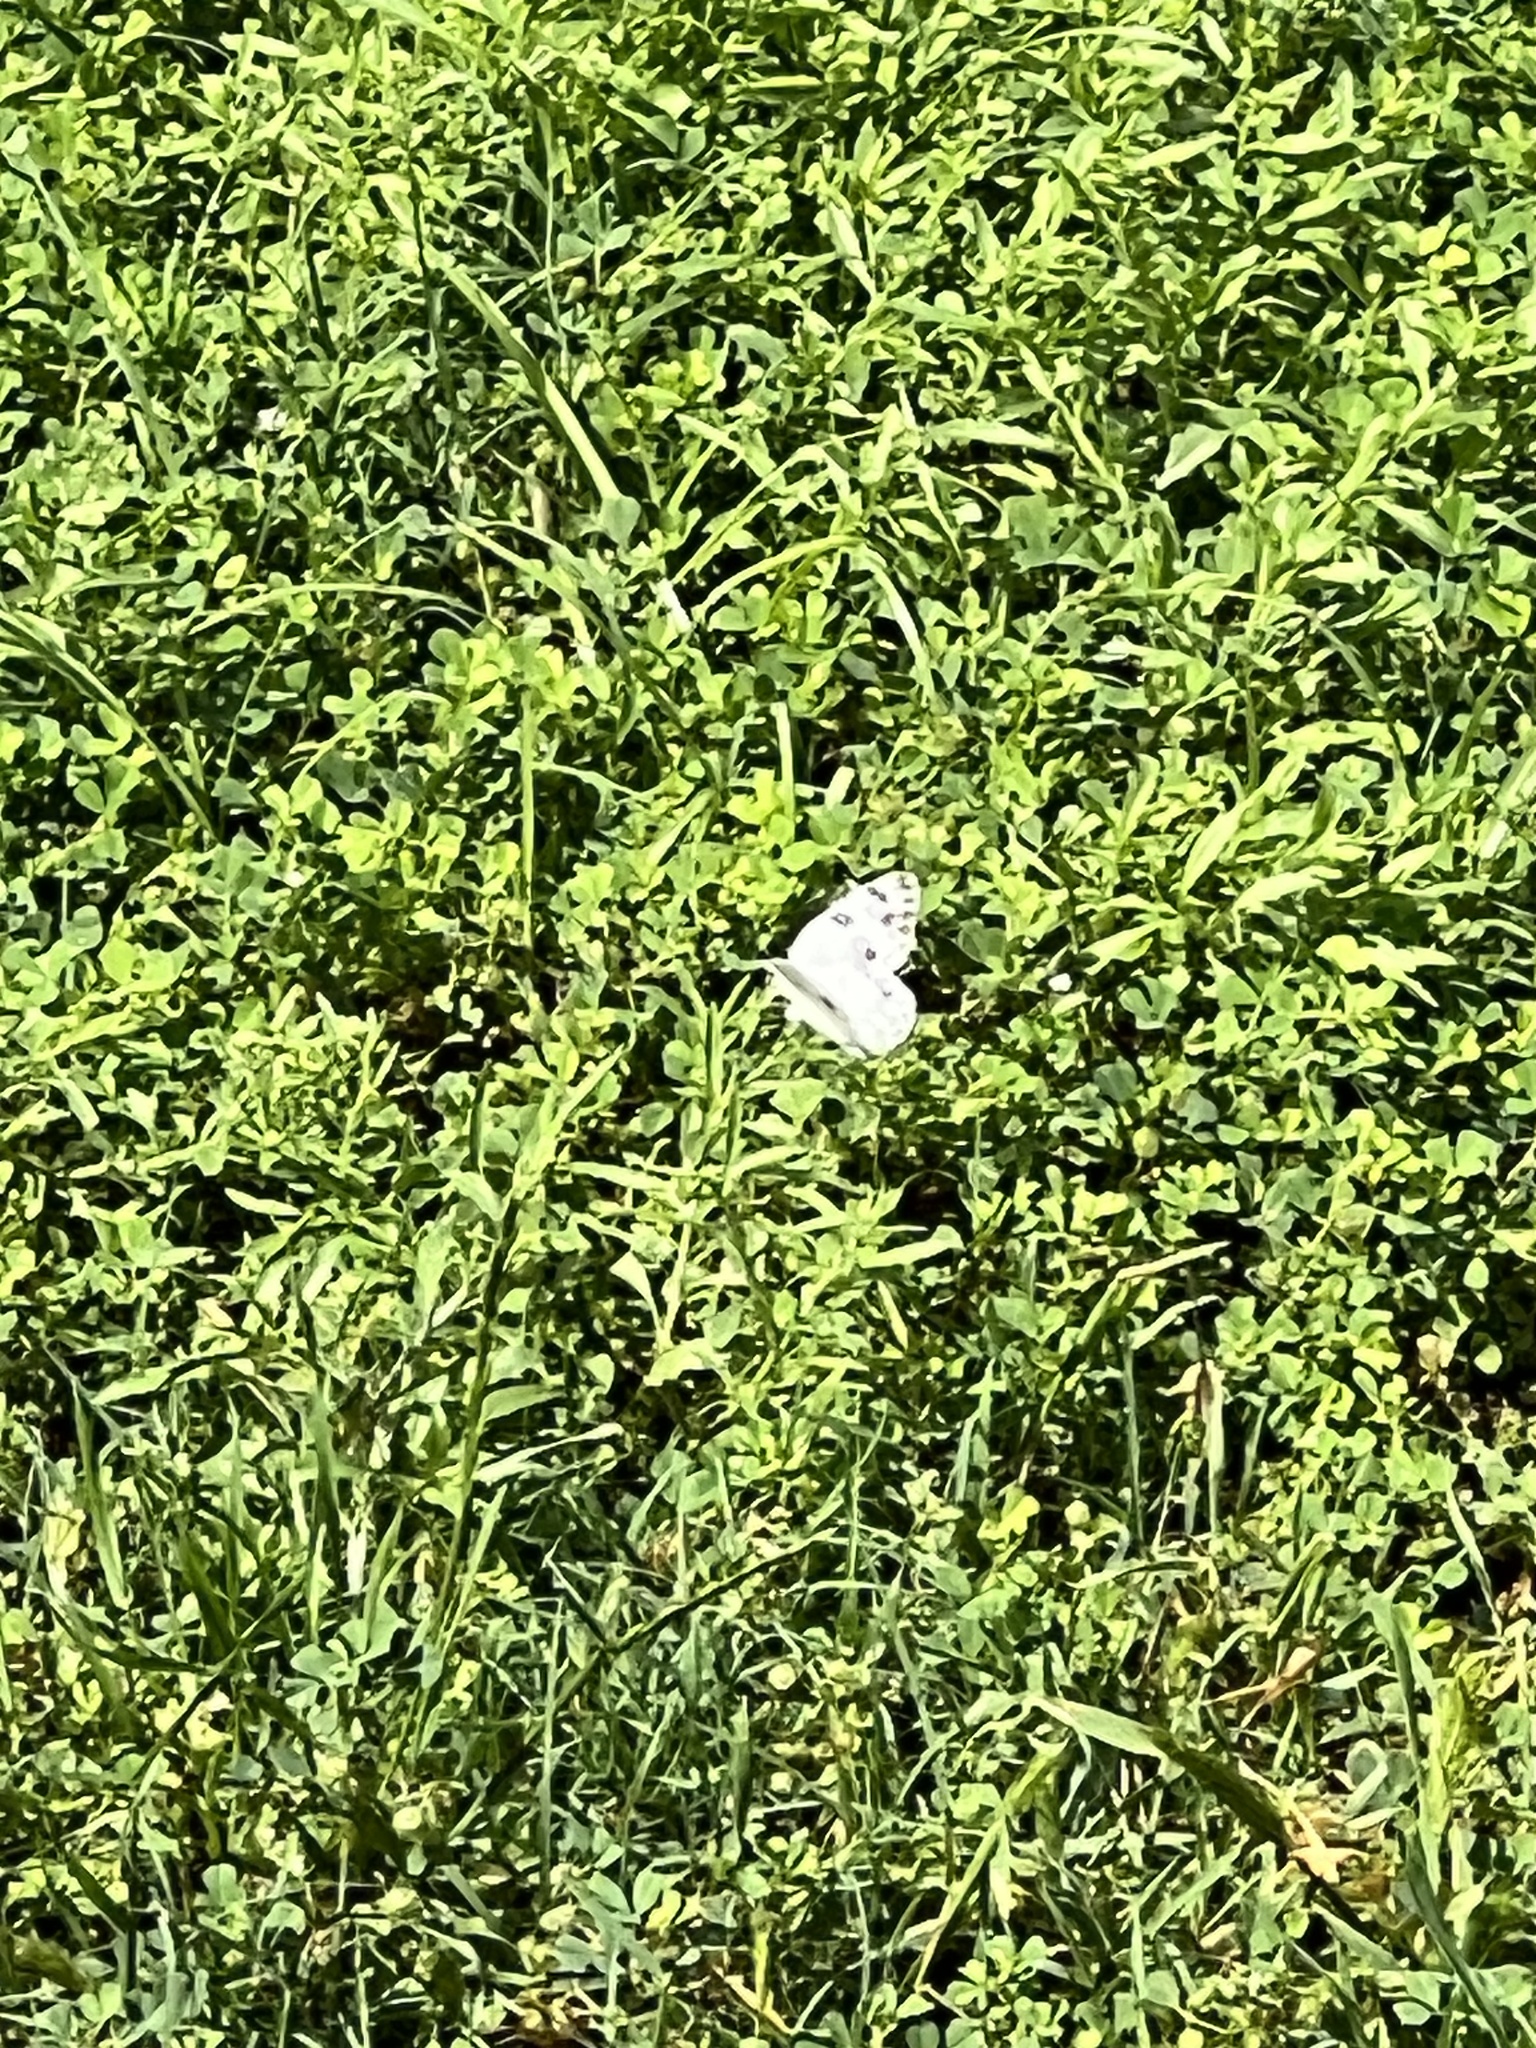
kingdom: Animalia
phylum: Arthropoda
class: Insecta
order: Lepidoptera
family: Pieridae
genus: Pontia
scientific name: Pontia protodice
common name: Checkered white
